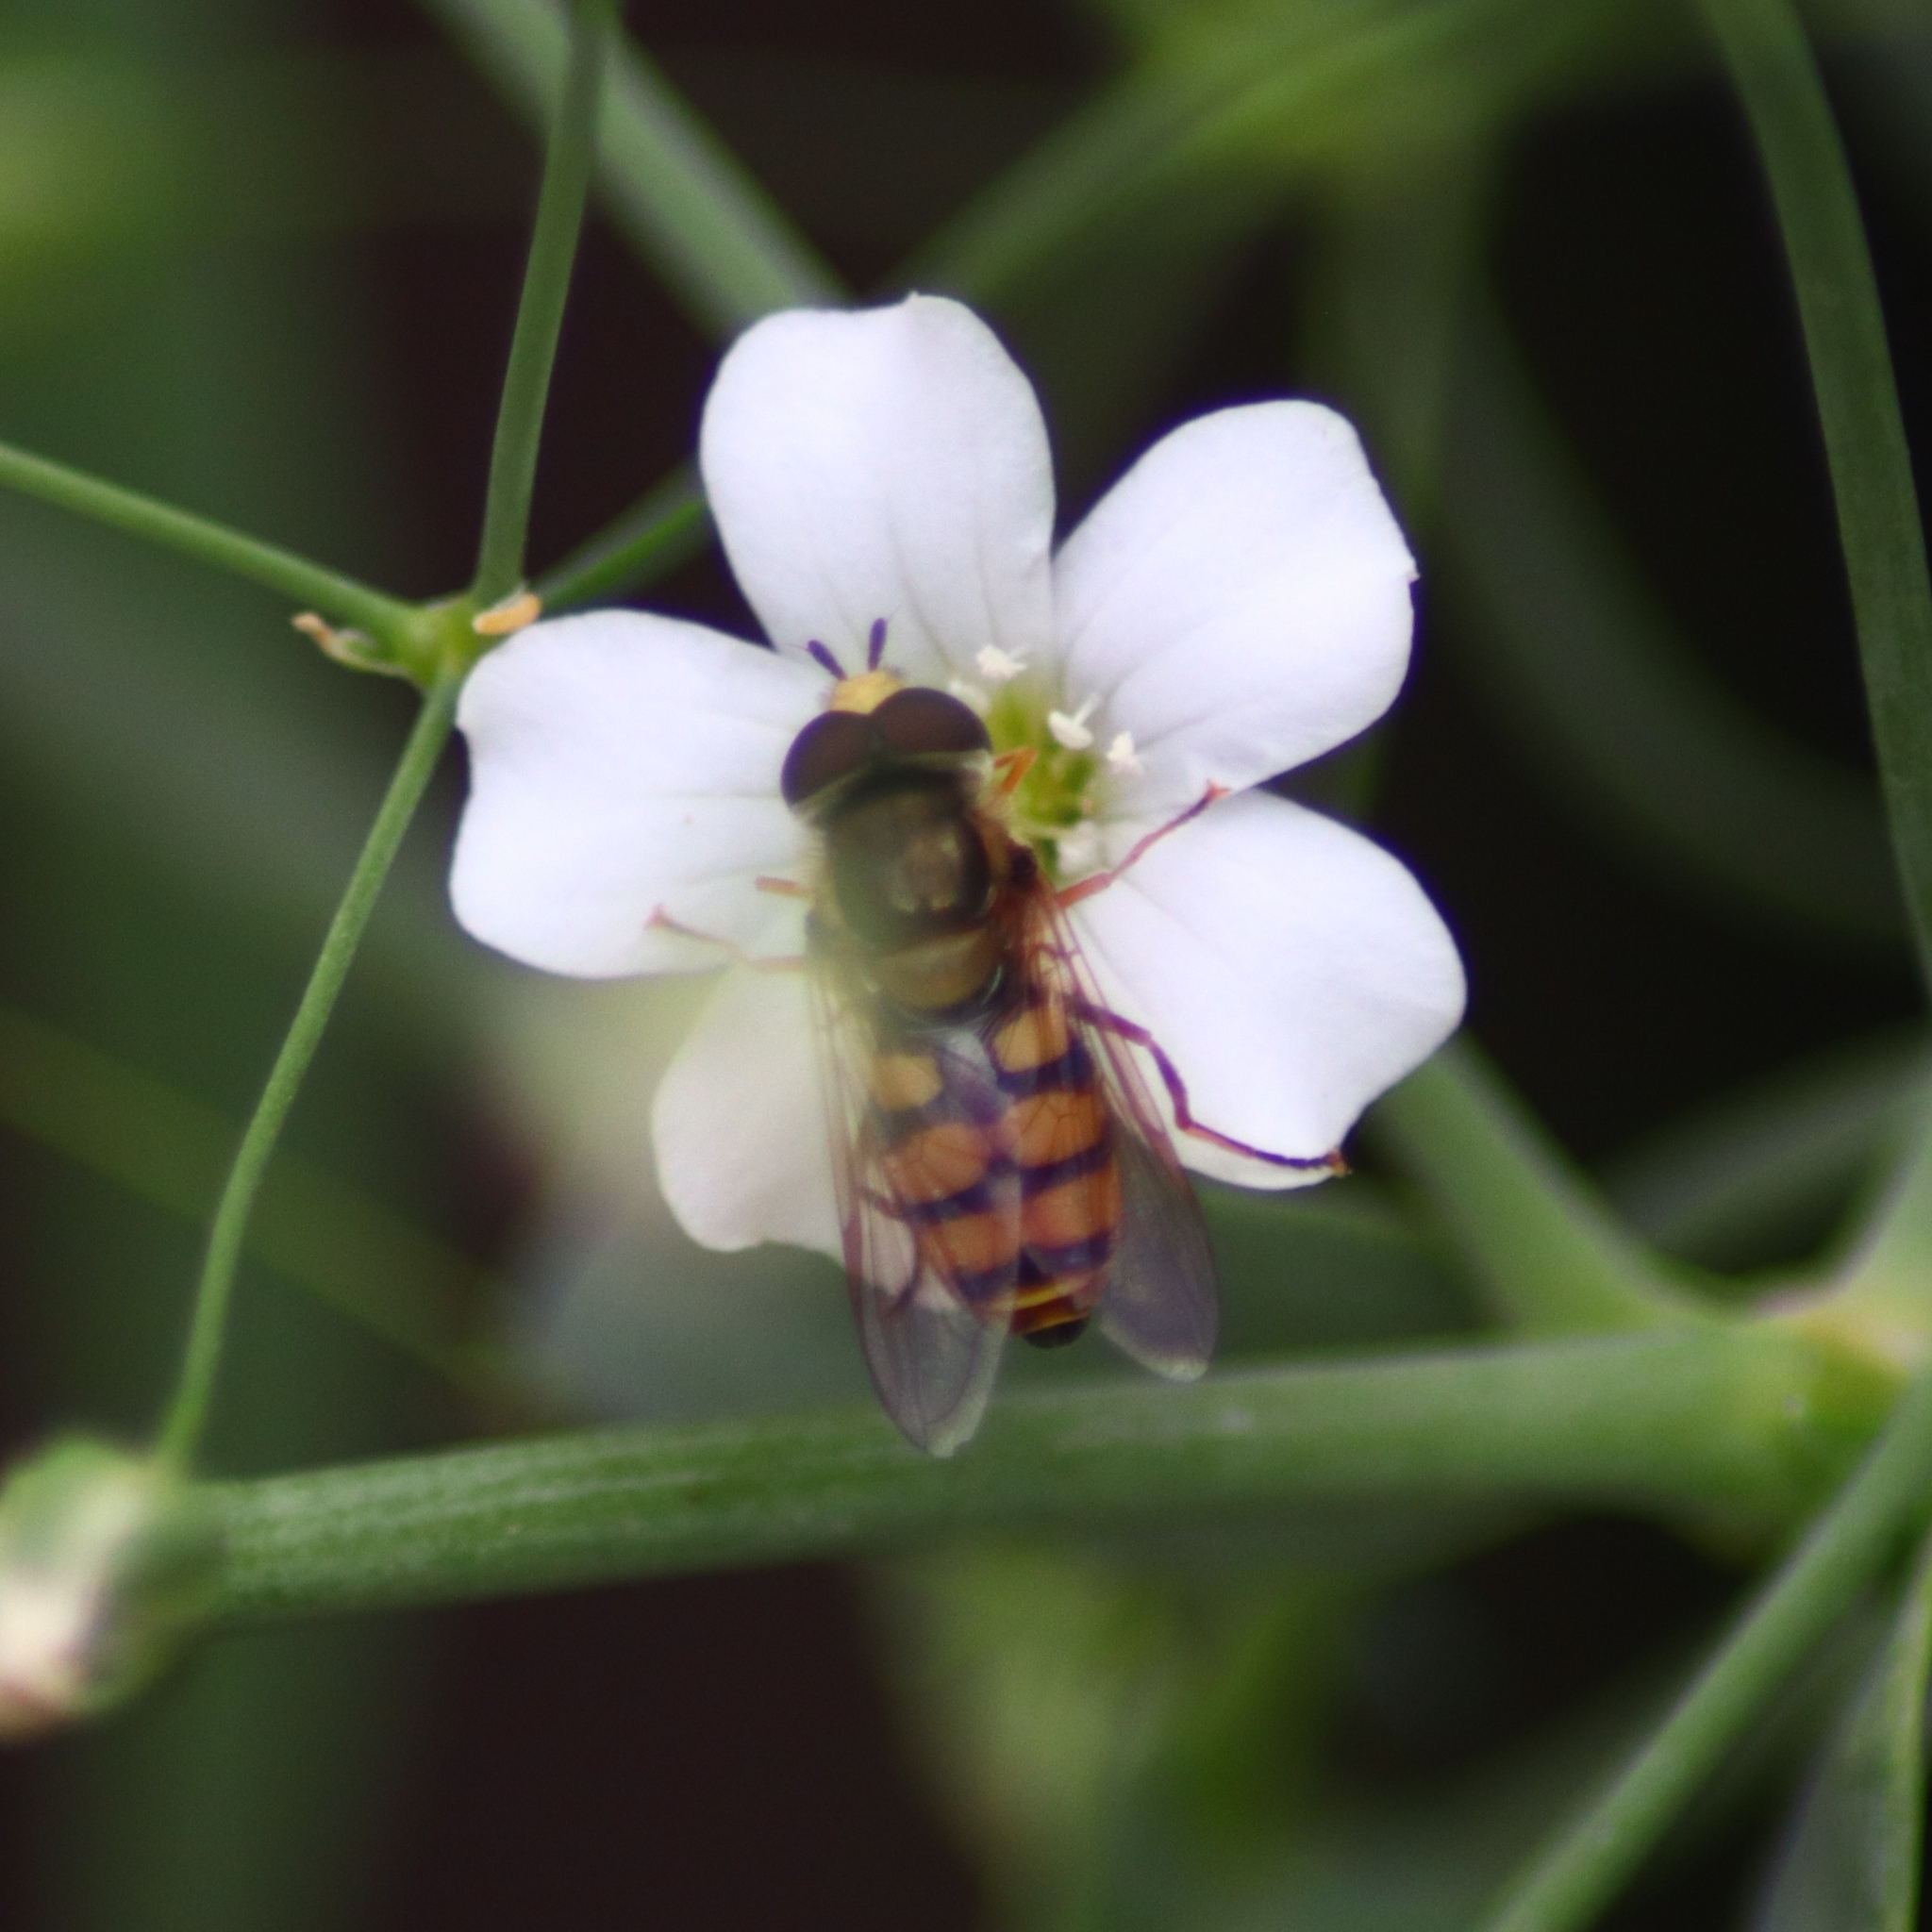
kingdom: Animalia
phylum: Arthropoda
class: Insecta
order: Diptera
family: Syrphidae
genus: Eupeodes
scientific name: Eupeodes corollae
